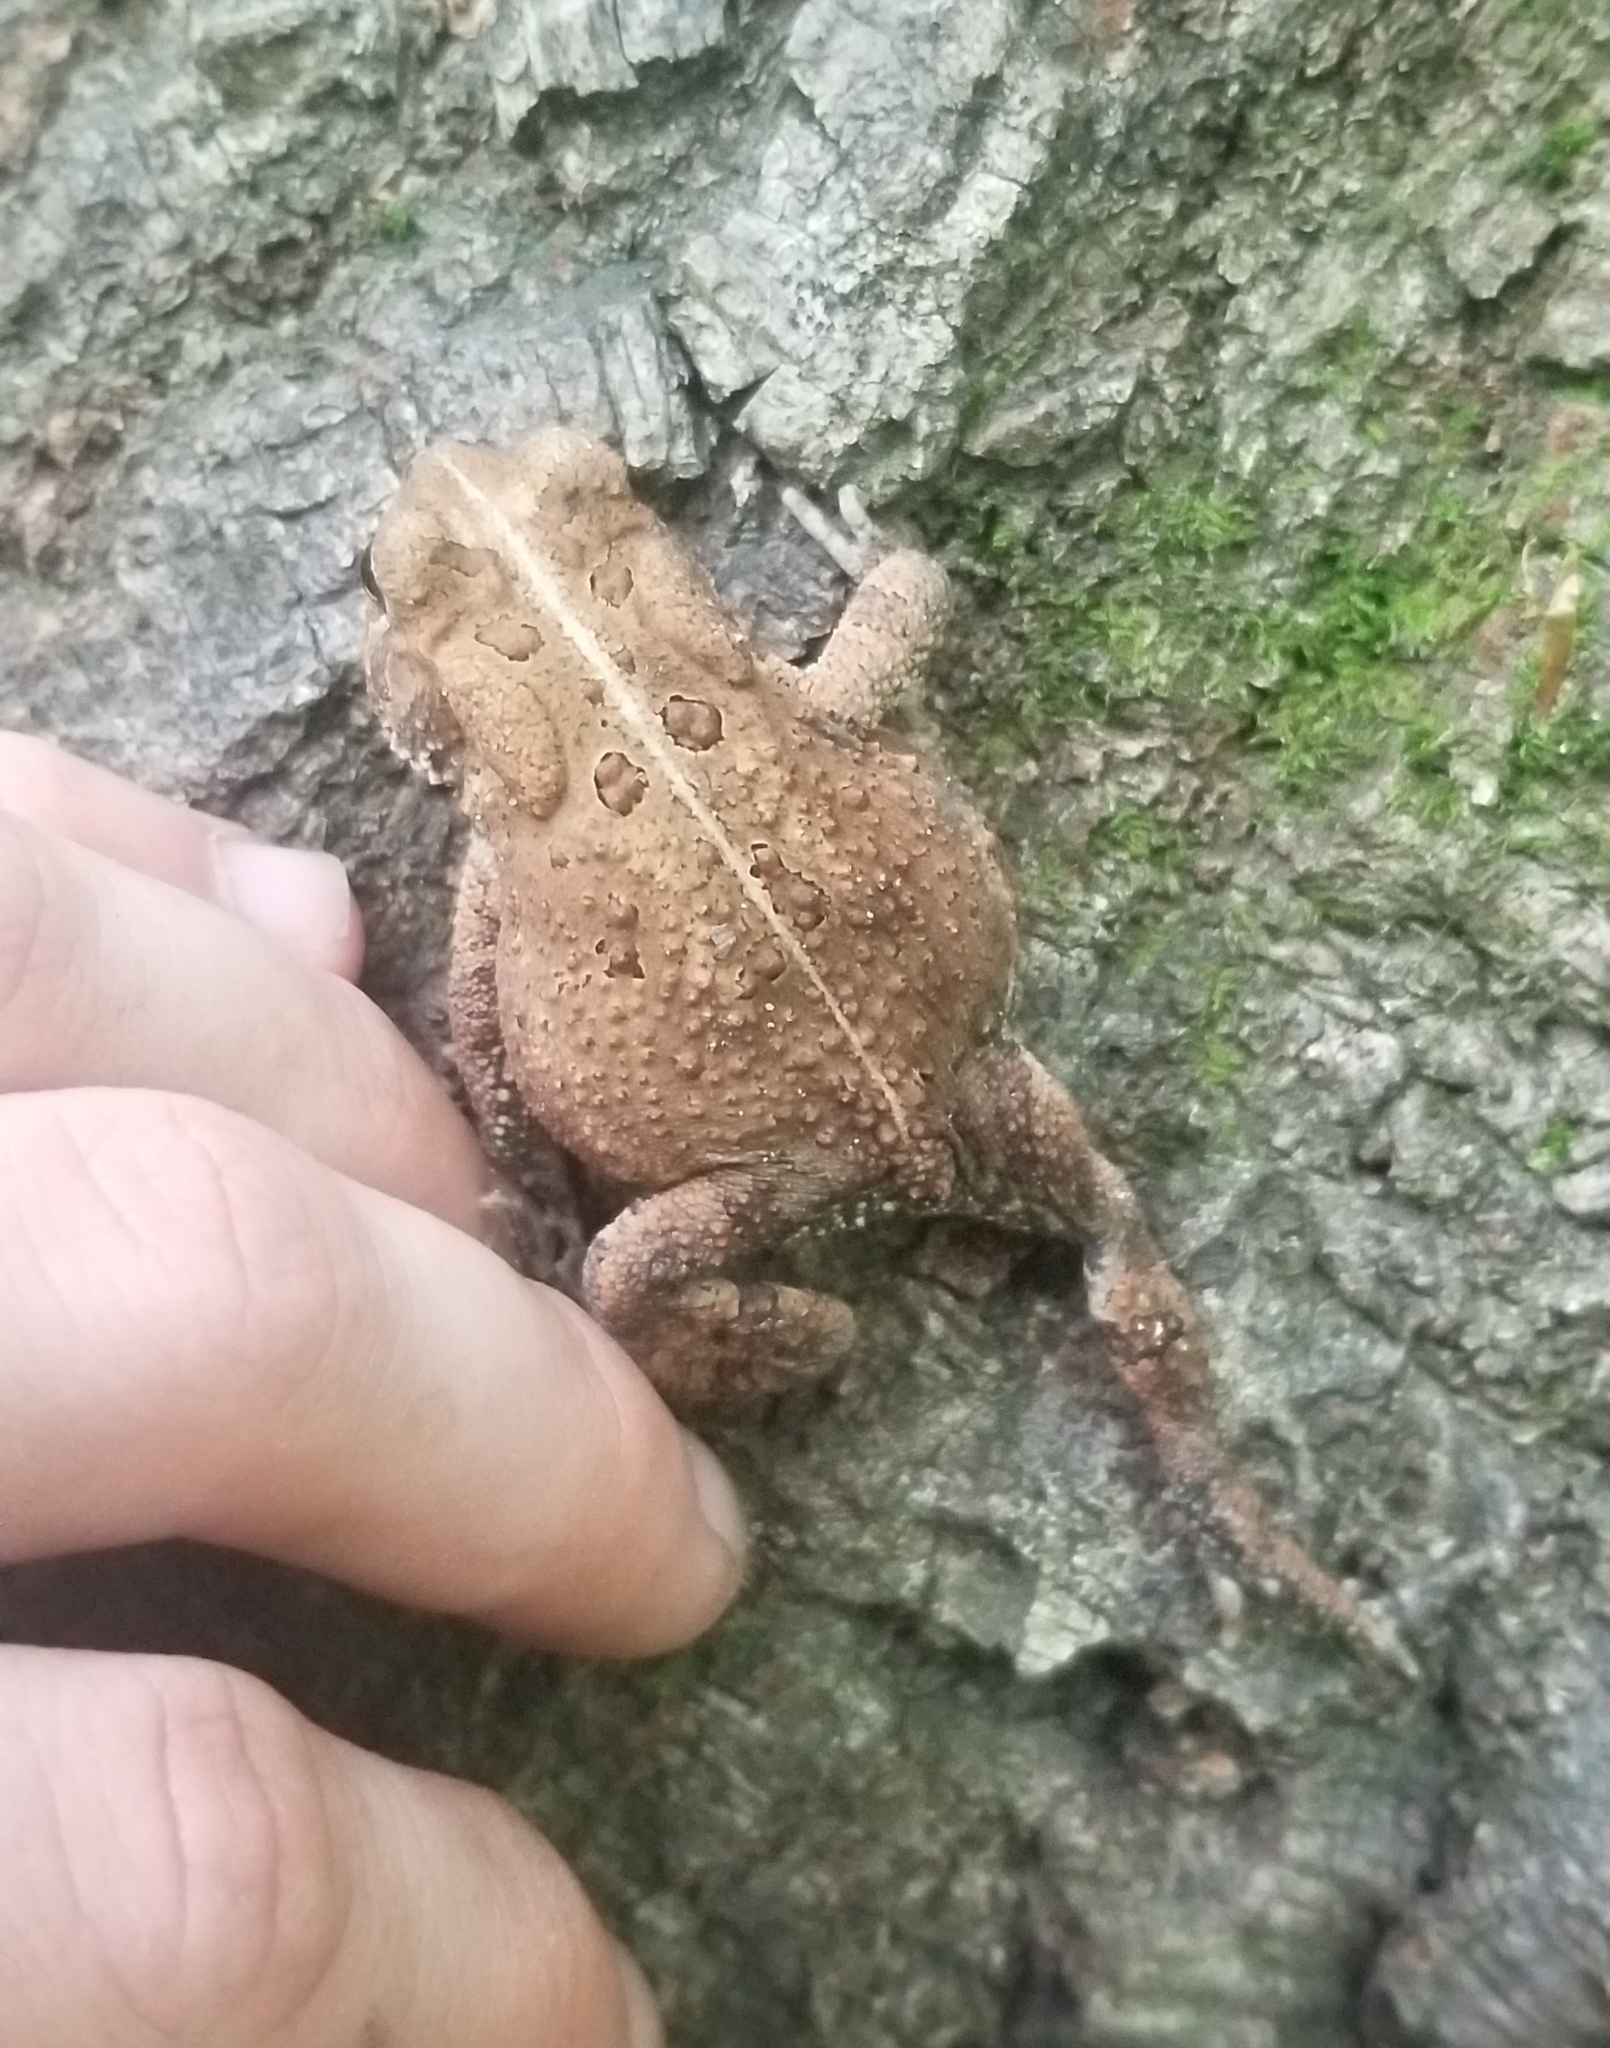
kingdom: Animalia
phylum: Chordata
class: Amphibia
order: Anura
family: Bufonidae
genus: Anaxyrus
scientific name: Anaxyrus americanus
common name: American toad
